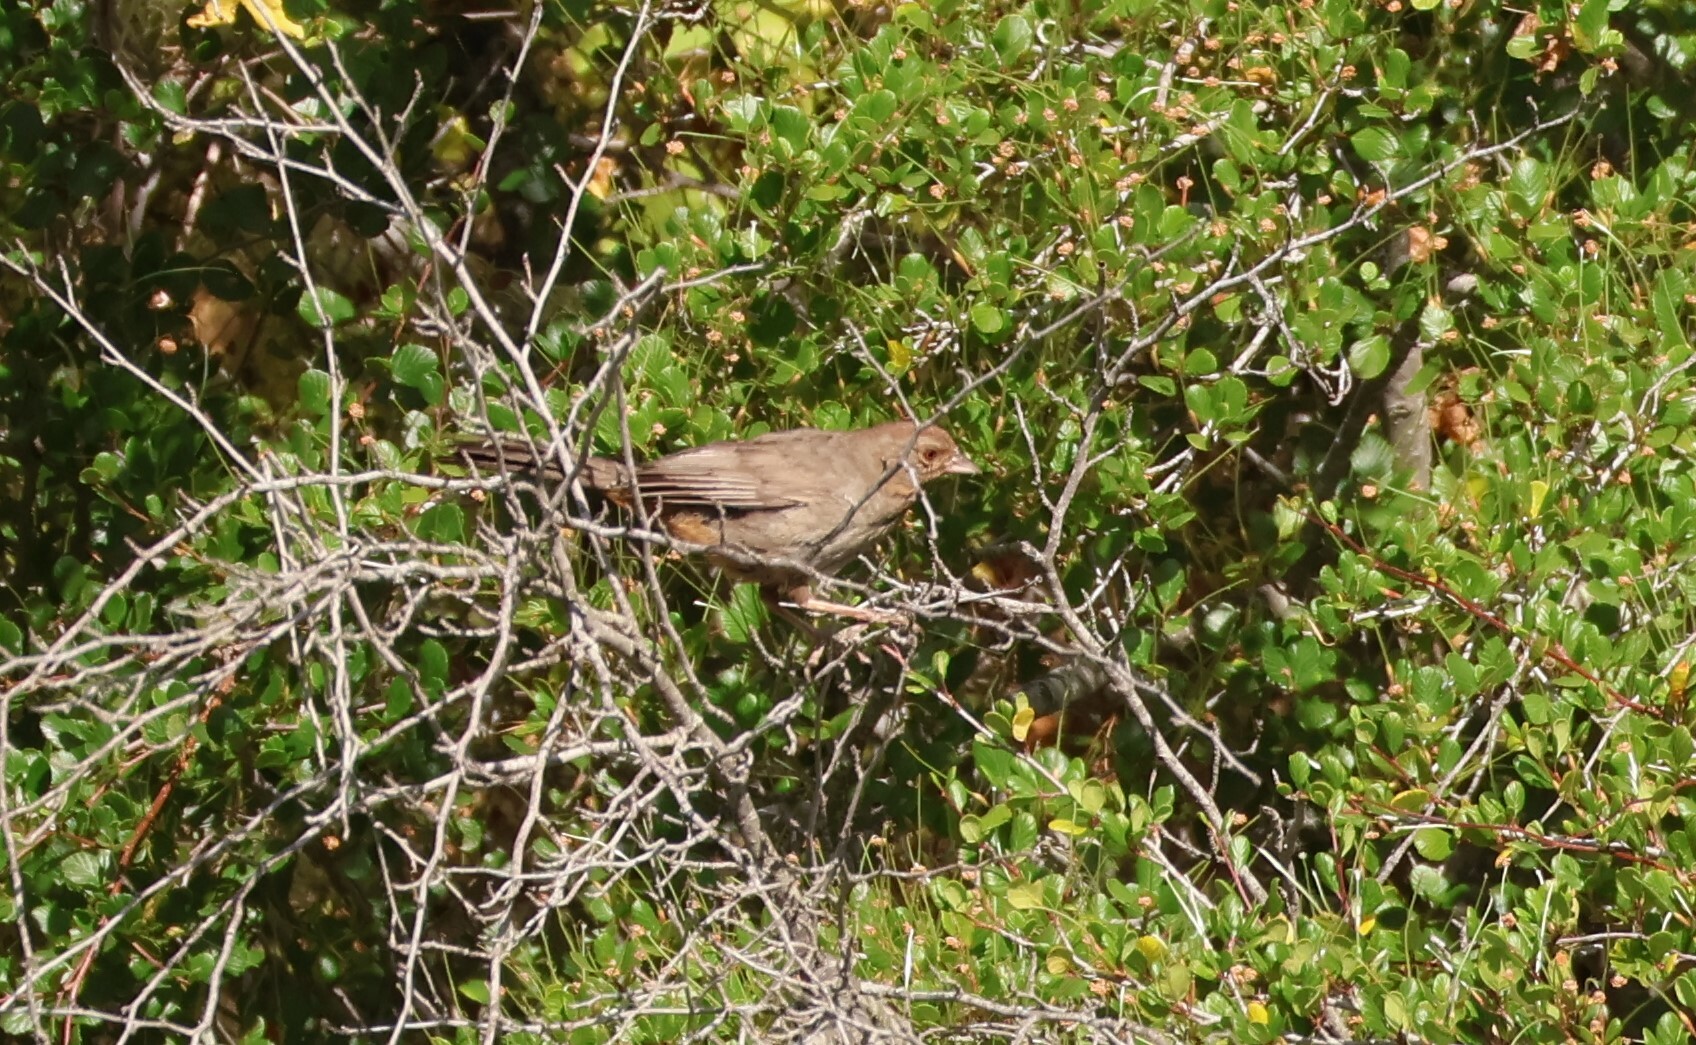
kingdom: Animalia
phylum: Chordata
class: Aves
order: Passeriformes
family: Passerellidae
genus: Melozone
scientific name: Melozone crissalis
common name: California towhee
